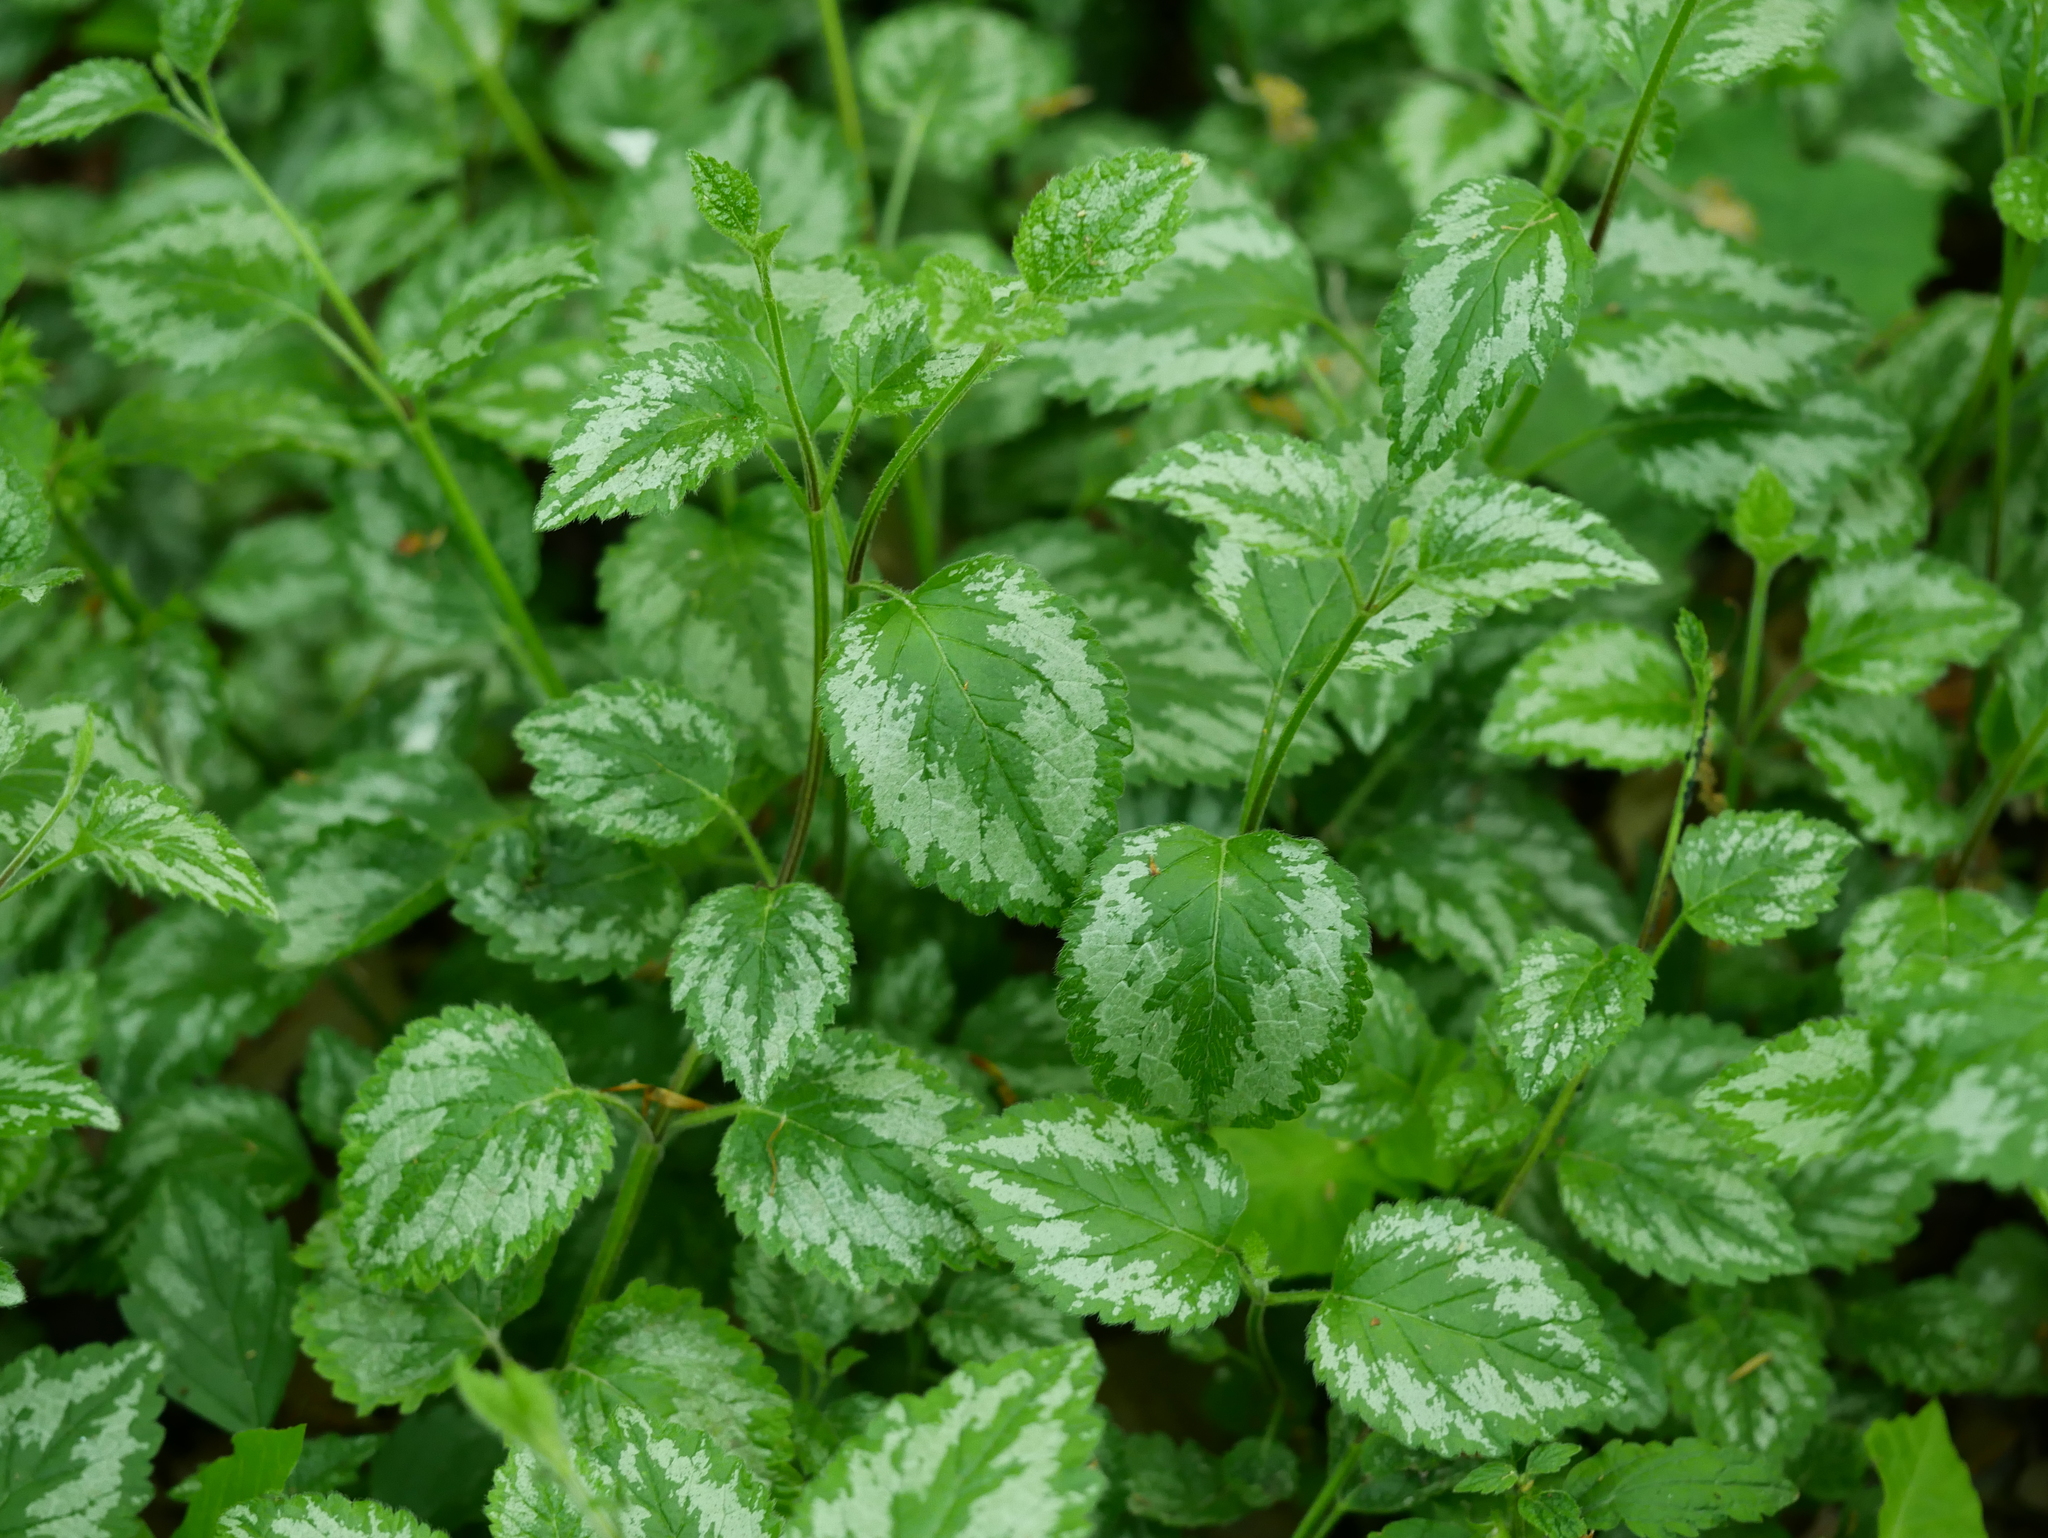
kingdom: Plantae
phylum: Tracheophyta
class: Magnoliopsida
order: Lamiales
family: Lamiaceae
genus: Lamium
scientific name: Lamium galeobdolon
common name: Yellow archangel
